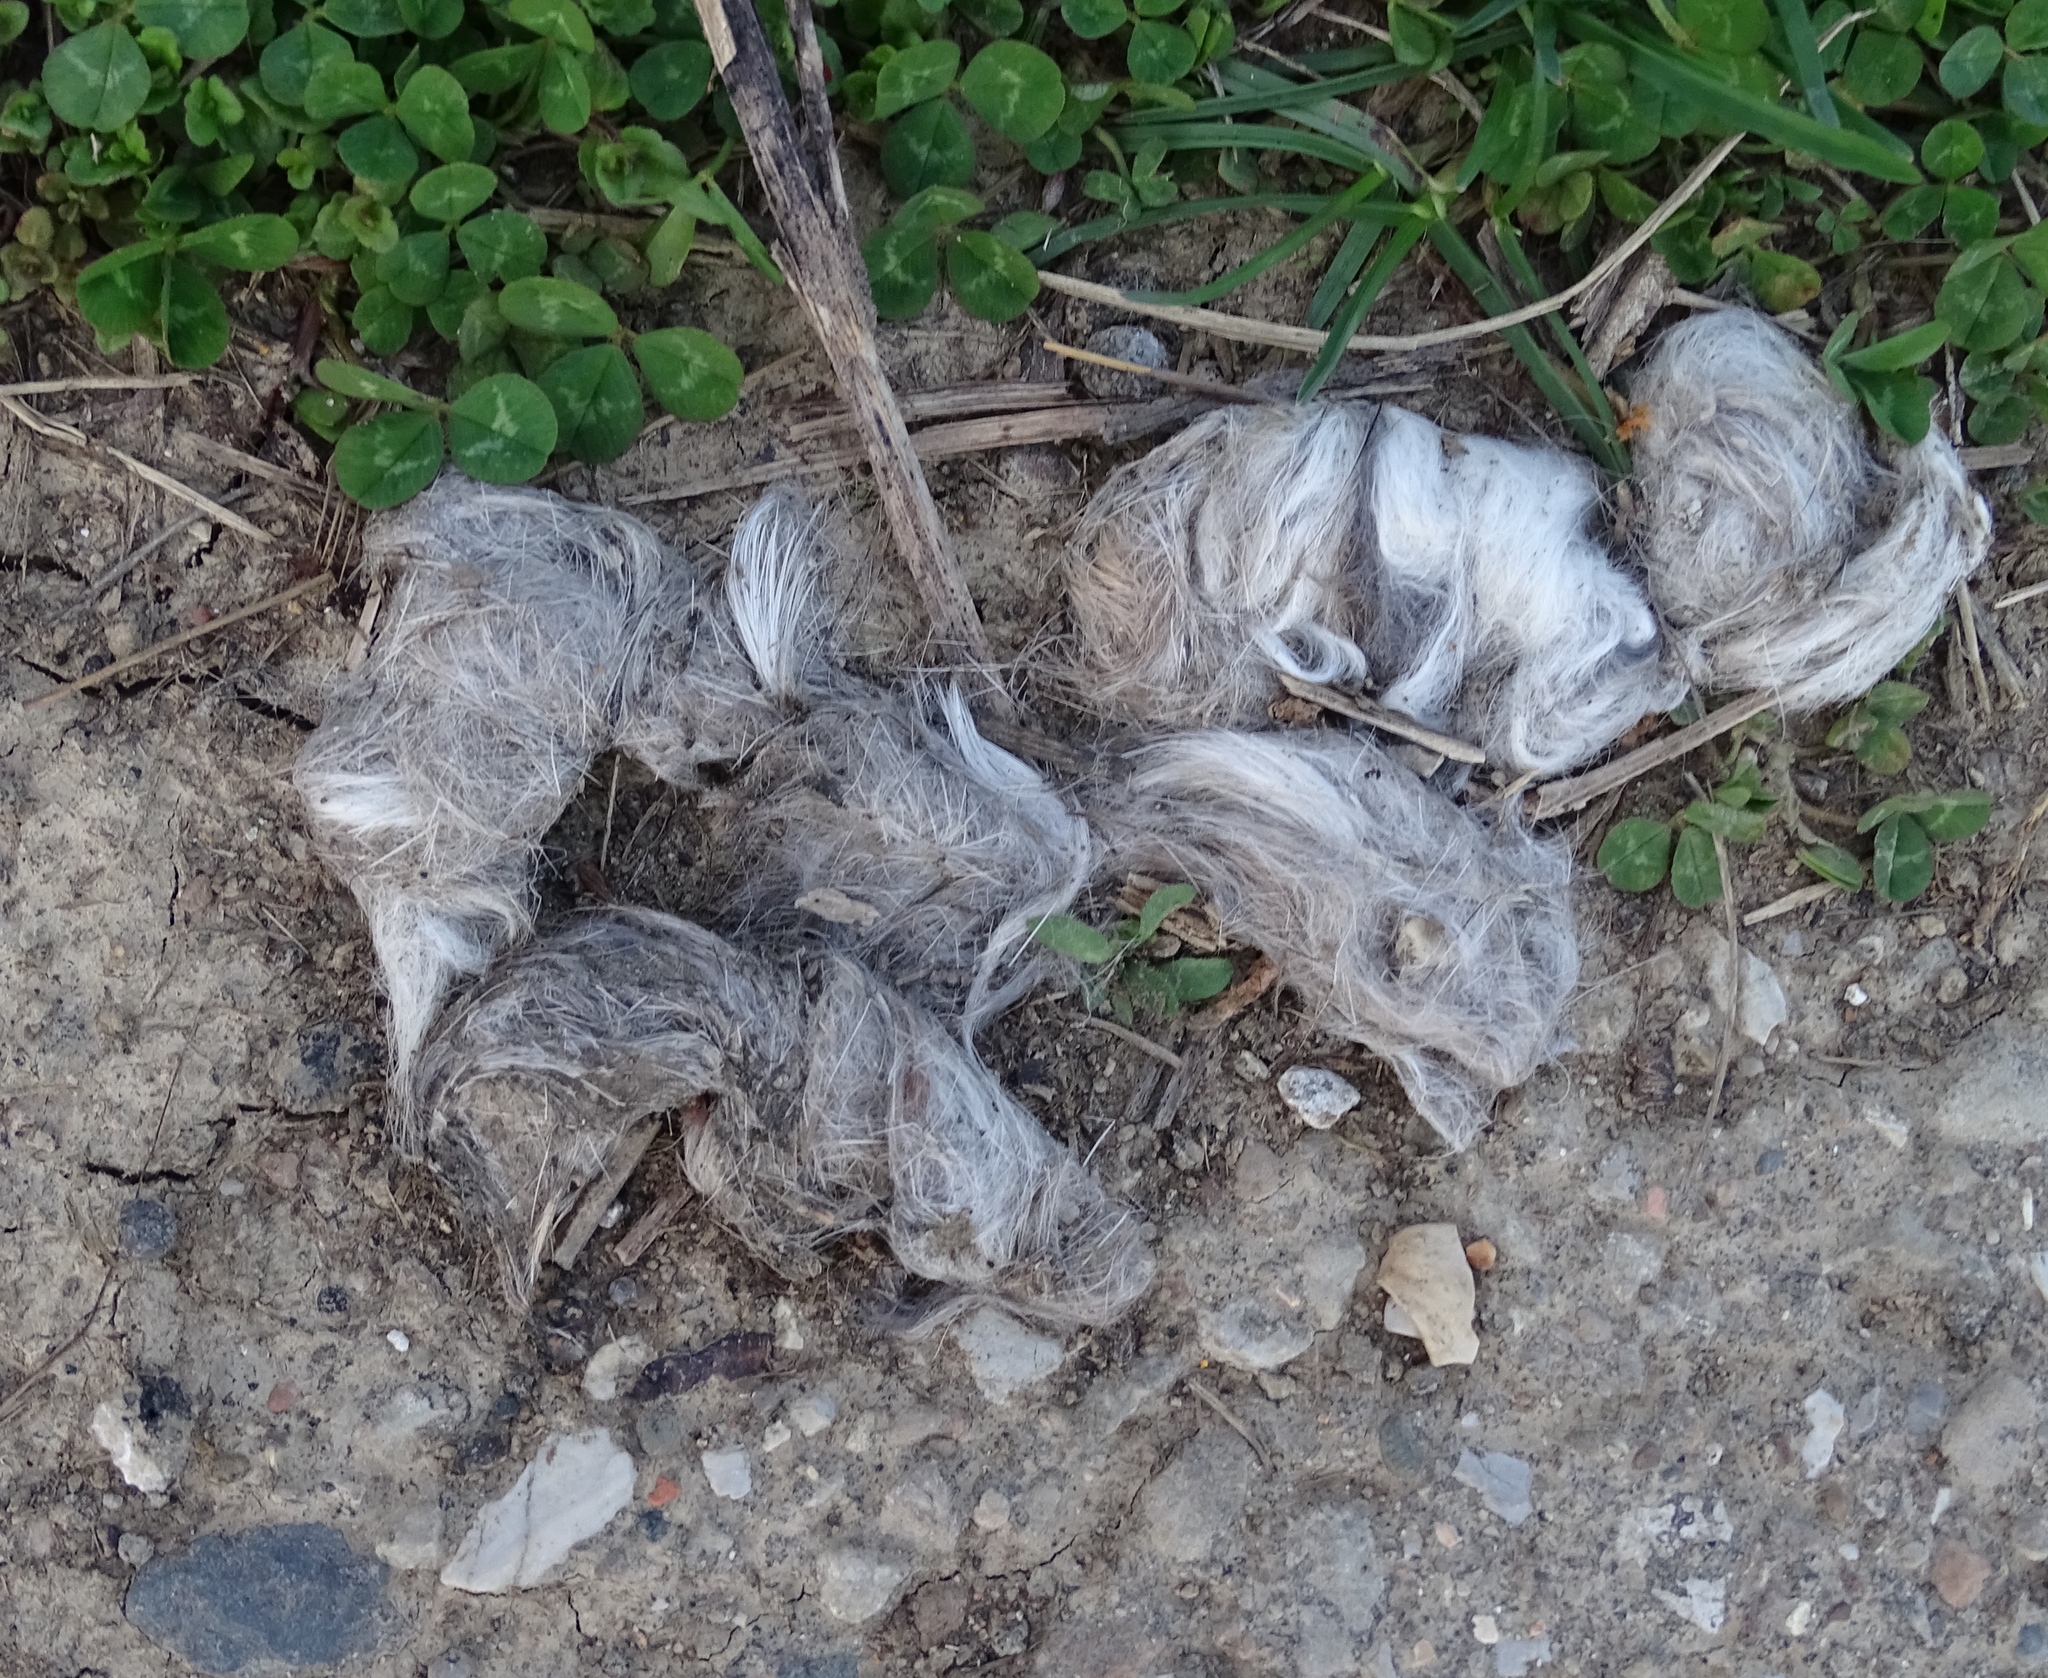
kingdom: Animalia
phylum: Chordata
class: Mammalia
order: Carnivora
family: Canidae
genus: Canis
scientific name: Canis latrans
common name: Coyote
